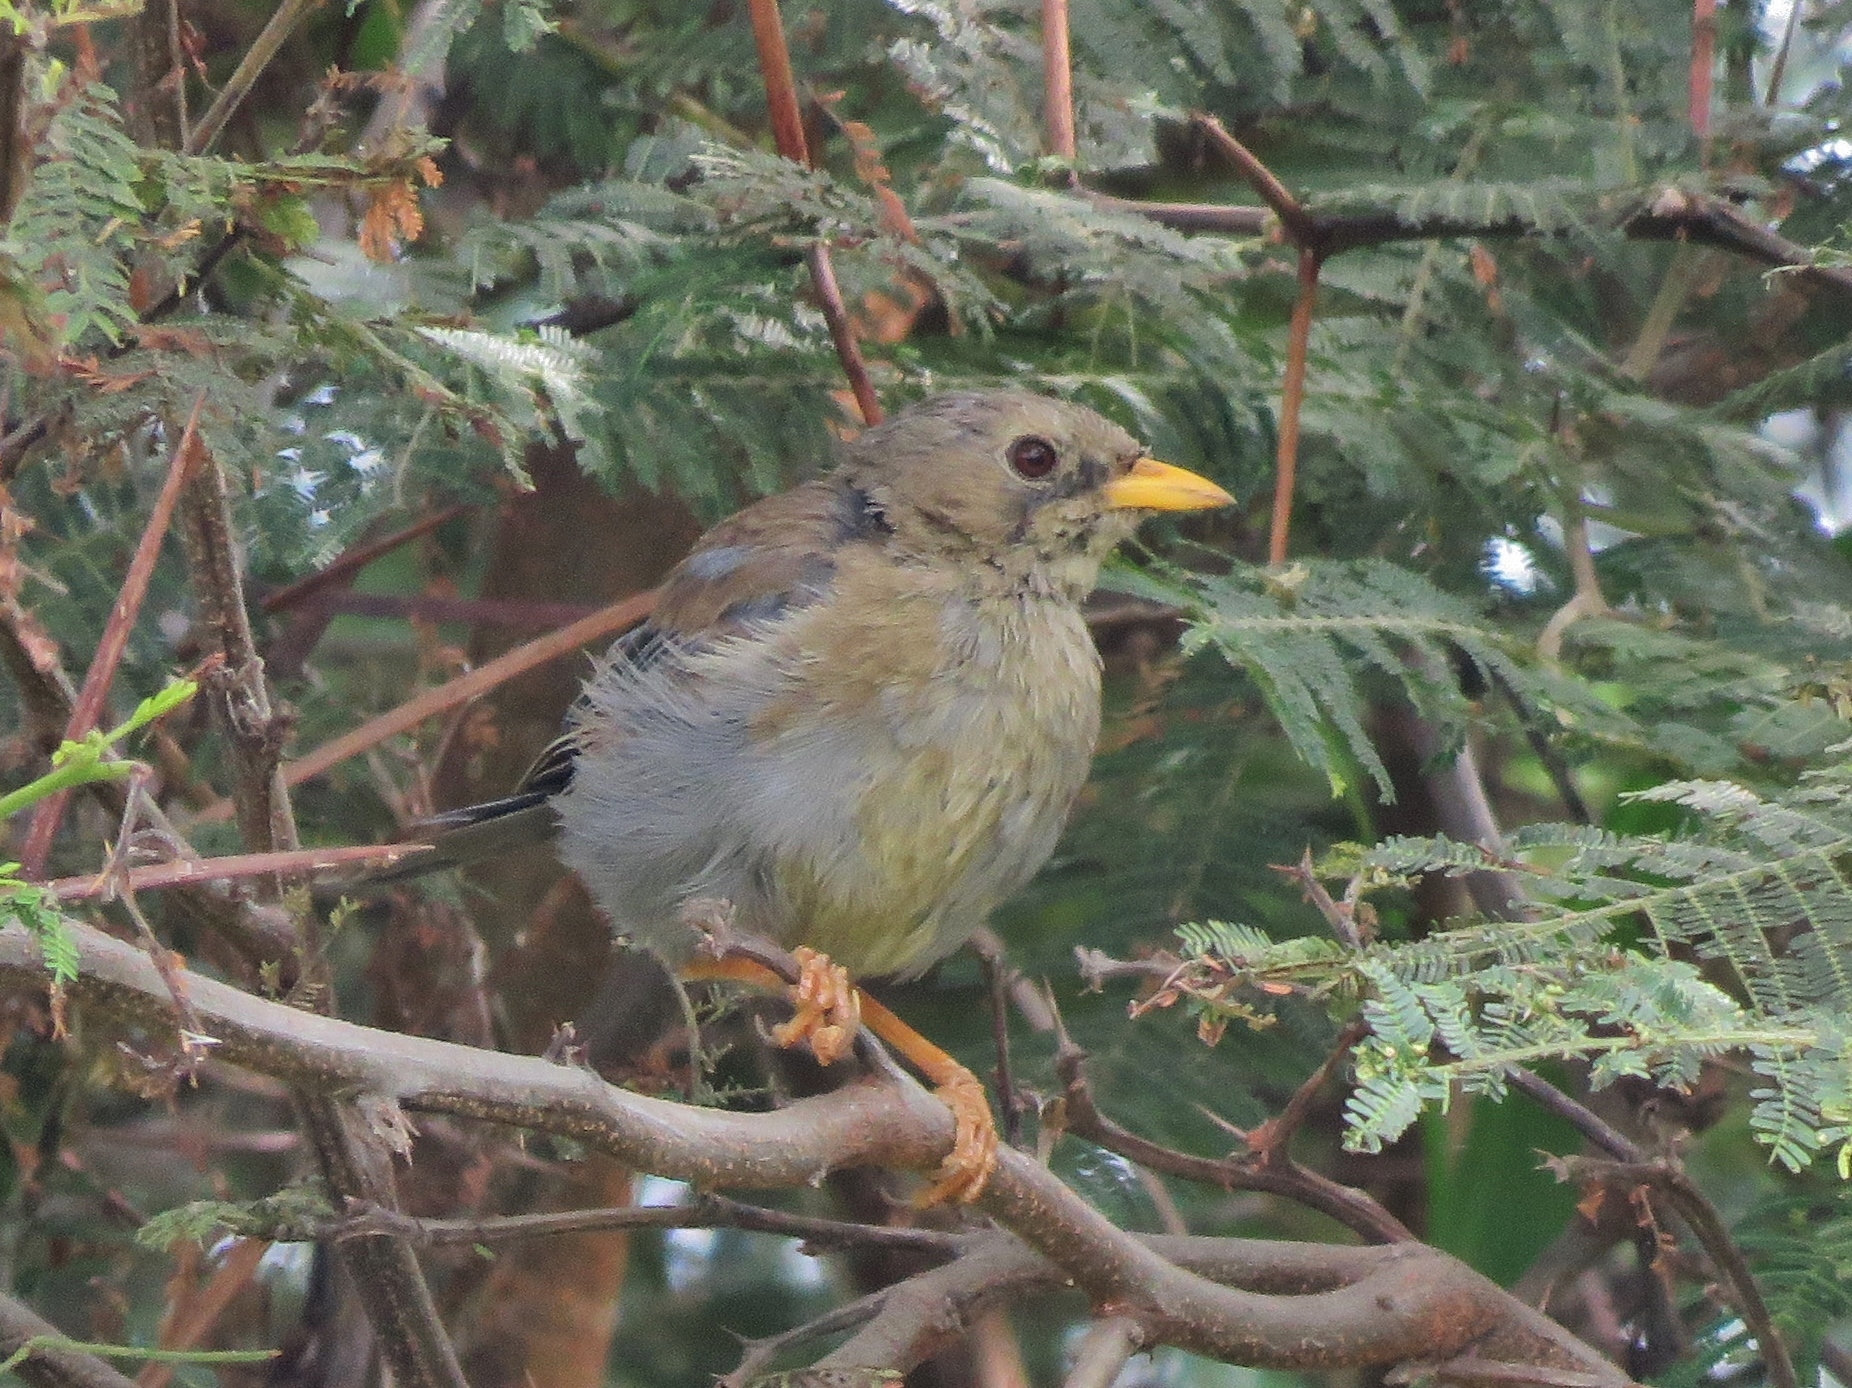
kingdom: Animalia
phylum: Chordata
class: Aves
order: Passeriformes
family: Thraupidae
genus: Xenospingus
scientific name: Xenospingus concolor
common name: Slender-billed finch
